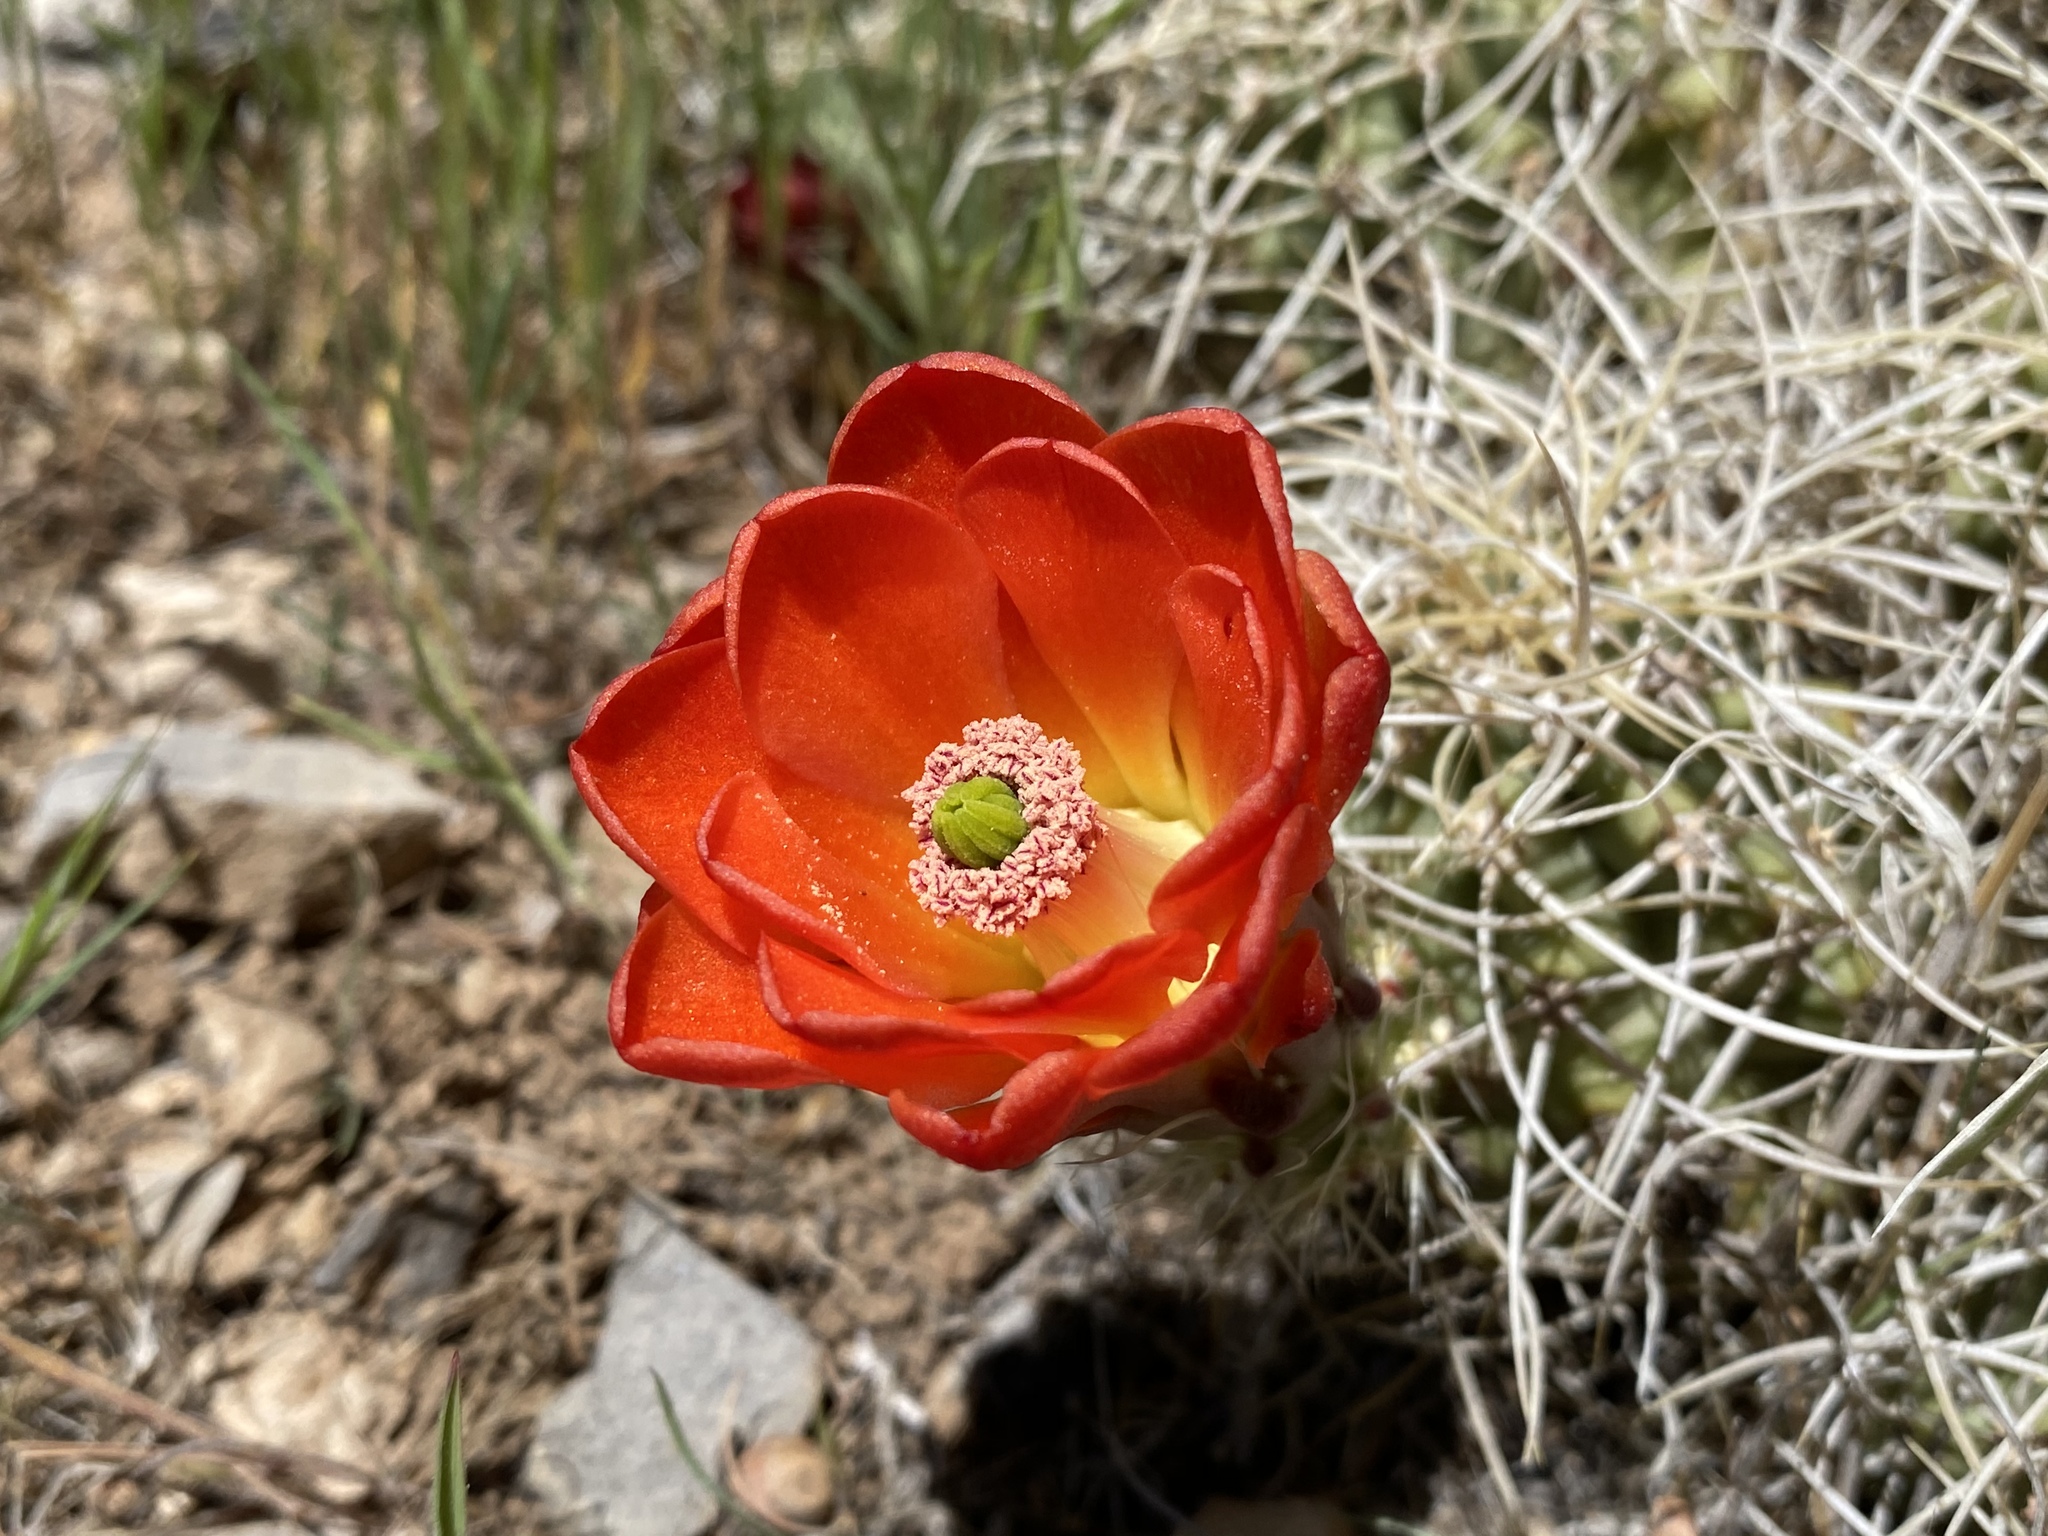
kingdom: Plantae
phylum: Tracheophyta
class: Magnoliopsida
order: Caryophyllales
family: Cactaceae
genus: Echinocereus
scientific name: Echinocereus triglochidiatus
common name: Claretcup hedgehog
